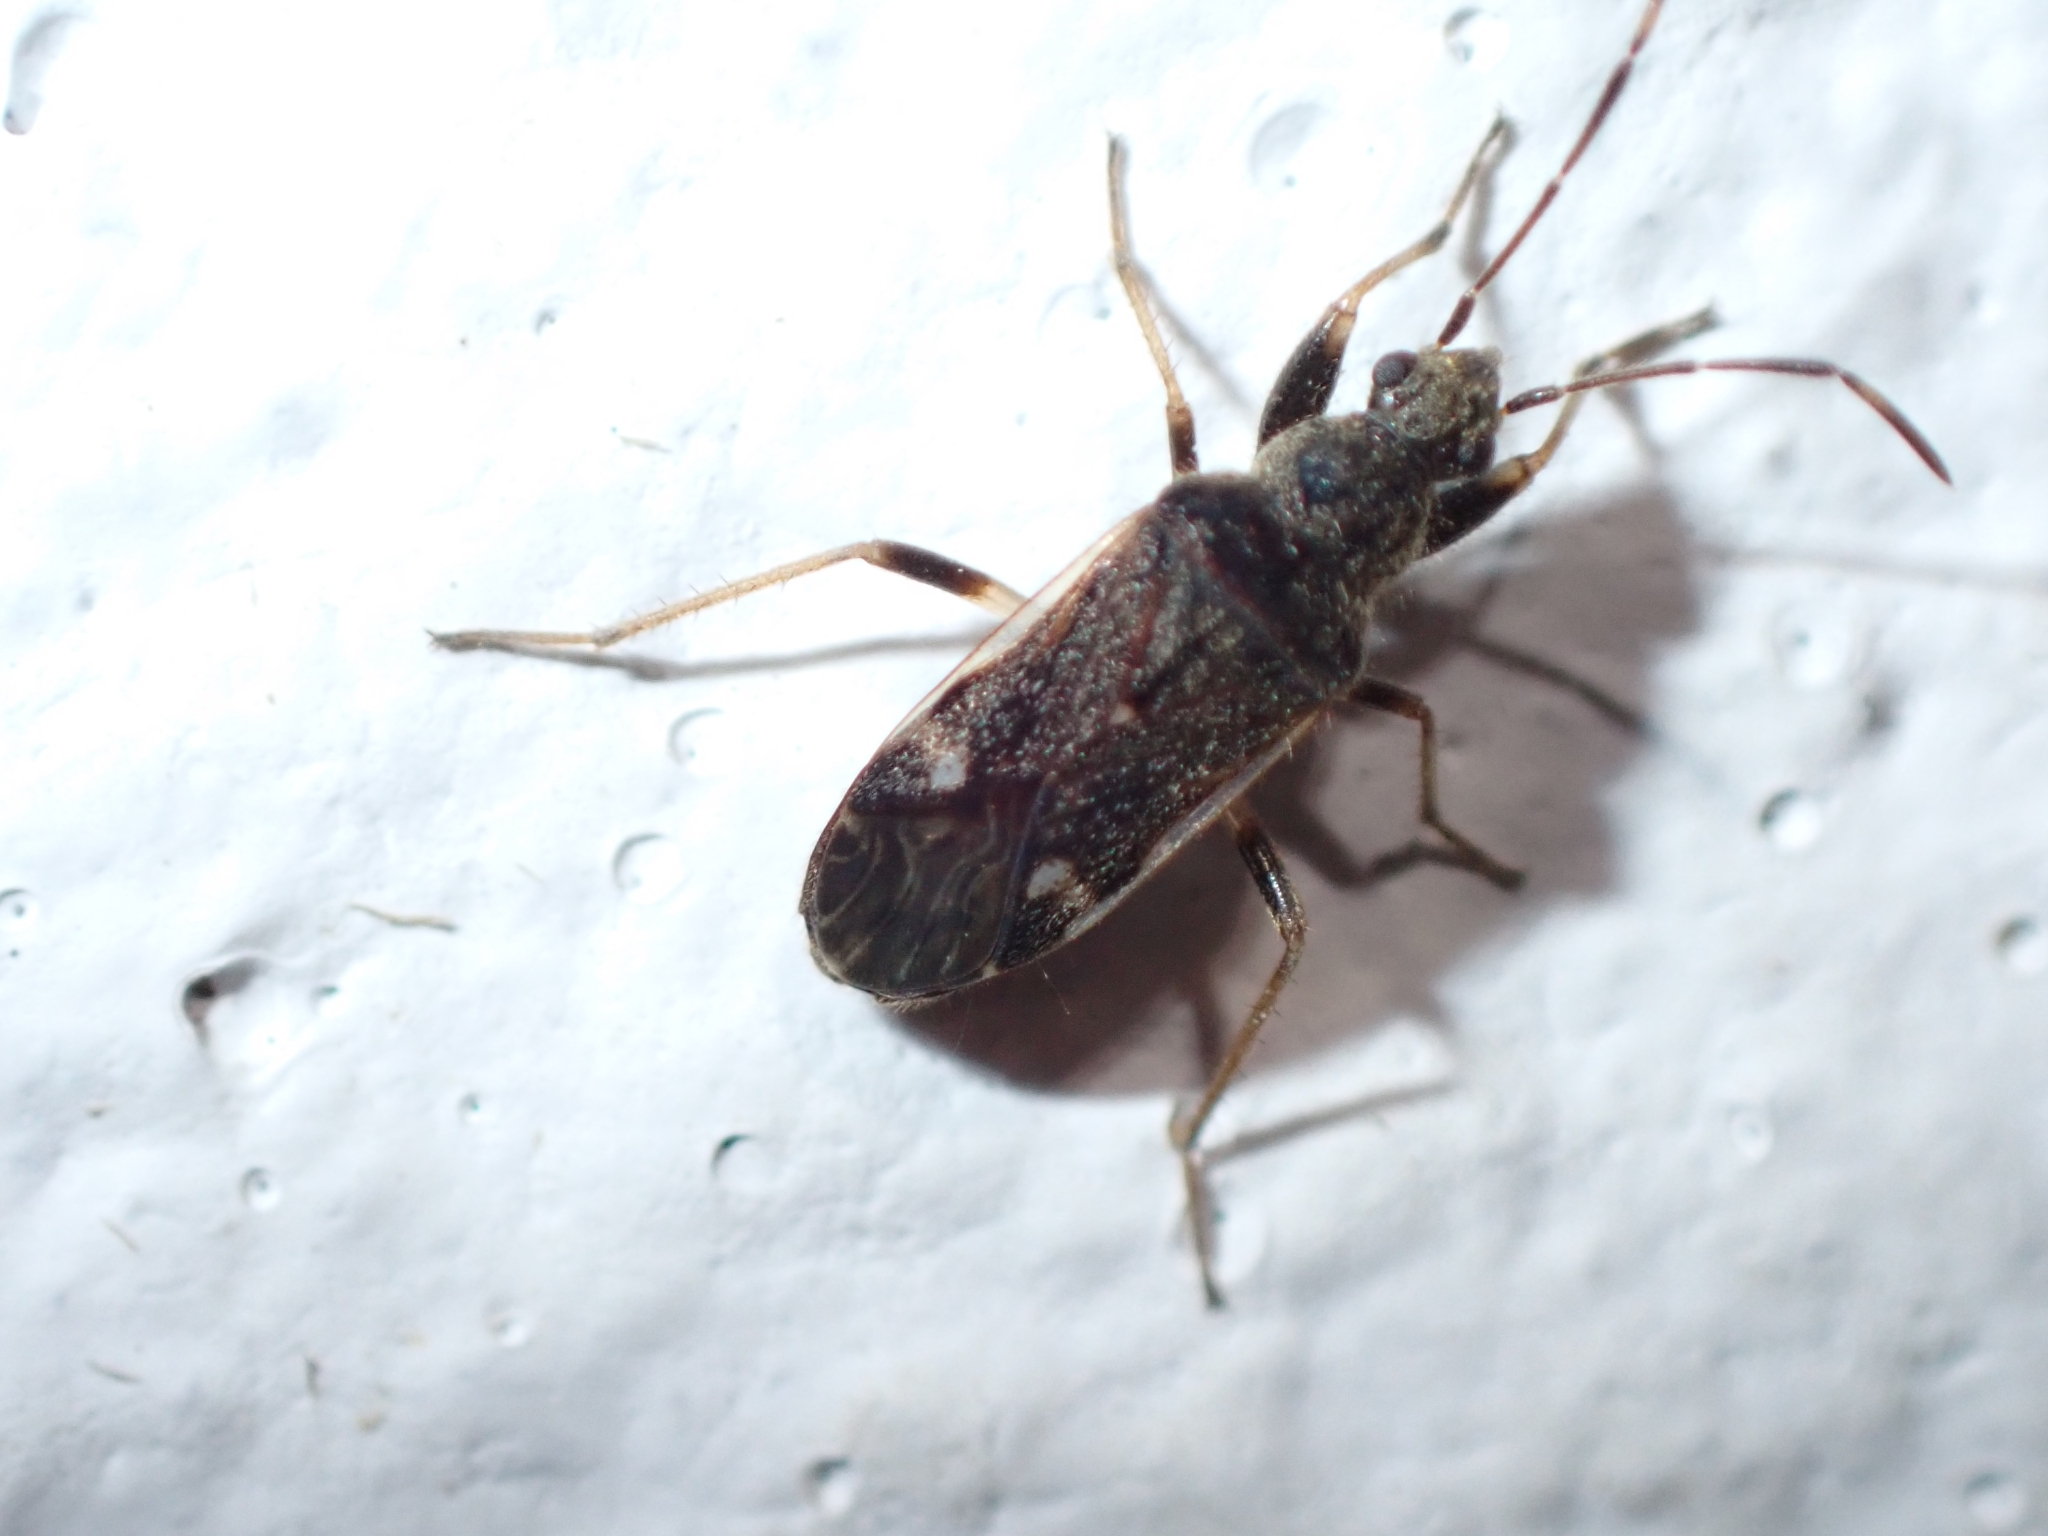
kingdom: Animalia
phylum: Arthropoda
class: Insecta
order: Hemiptera
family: Rhyparochromidae
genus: Horridipamera
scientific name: Horridipamera nietneri
